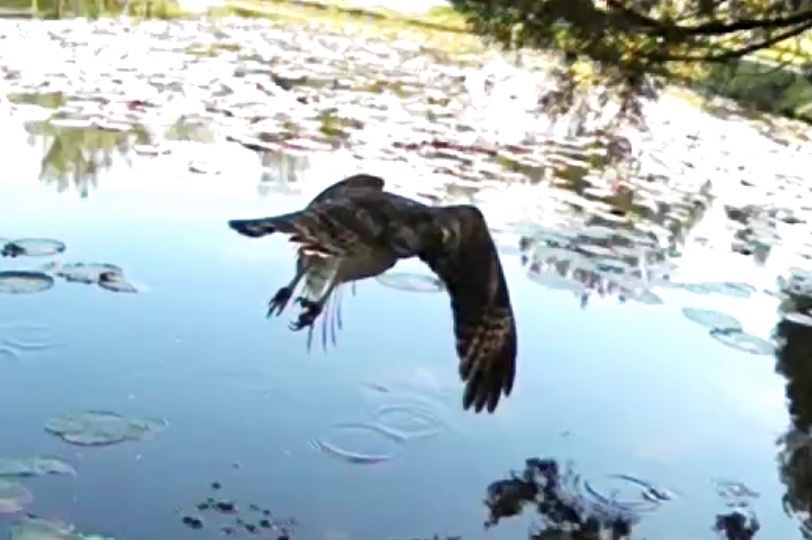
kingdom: Animalia
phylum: Chordata
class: Aves
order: Accipitriformes
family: Accipitridae
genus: Buteo
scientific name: Buteo lineatus
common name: Red-shouldered hawk
